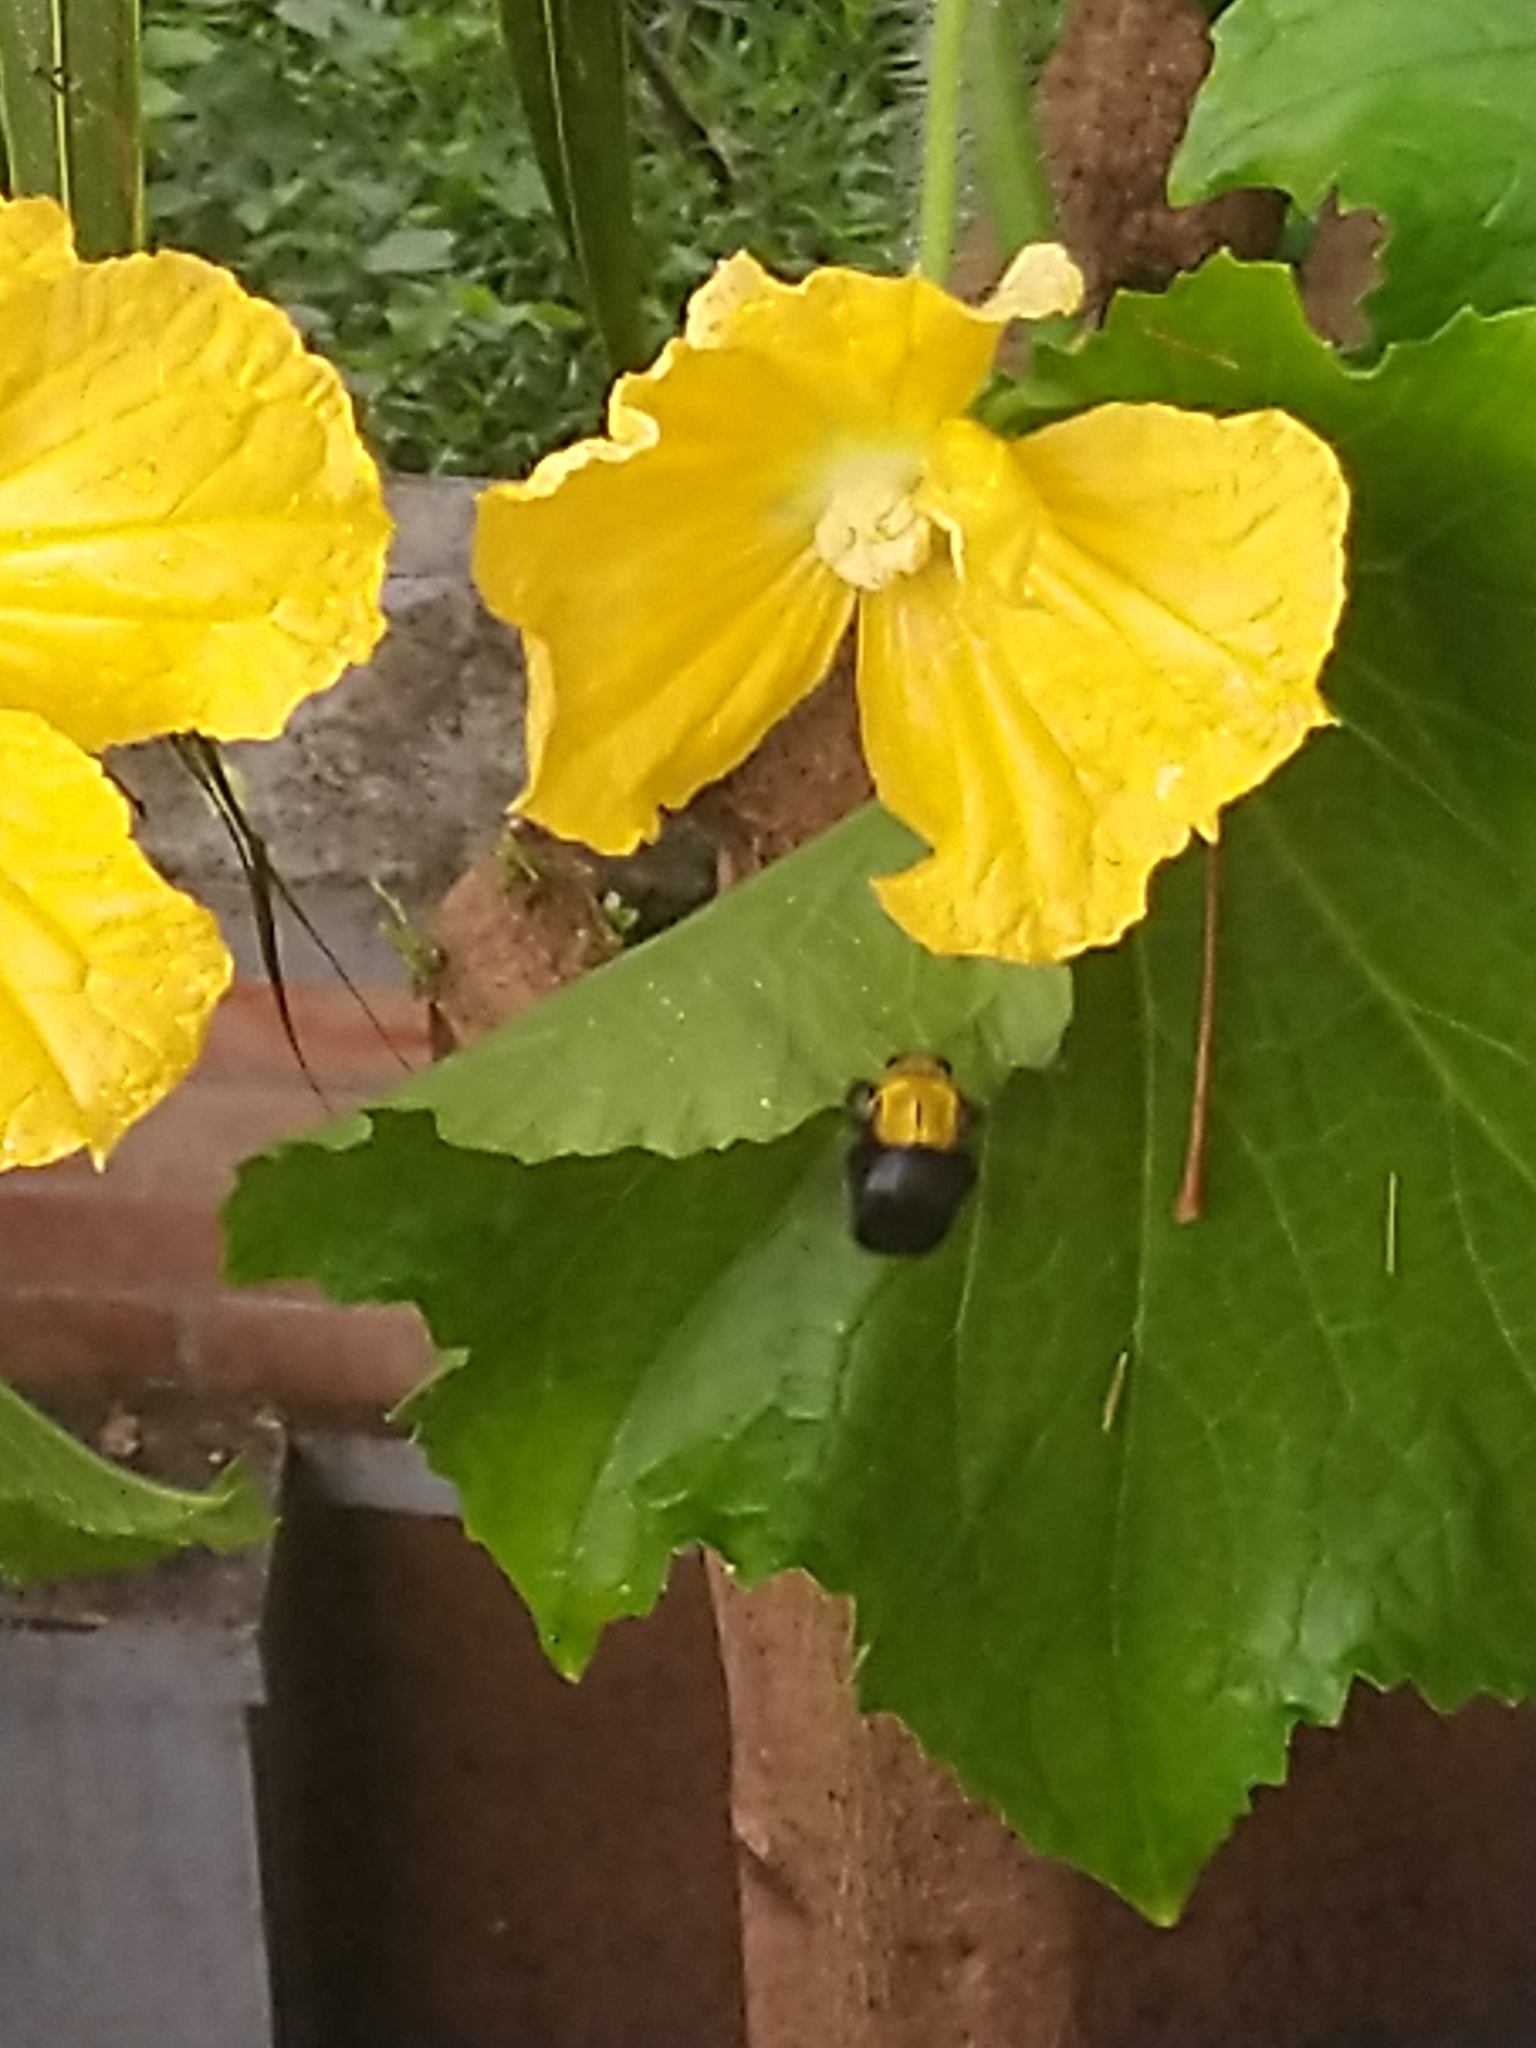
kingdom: Animalia
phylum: Arthropoda
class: Insecta
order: Hymenoptera
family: Apidae
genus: Xylocopa
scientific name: Xylocopa ruficornis
